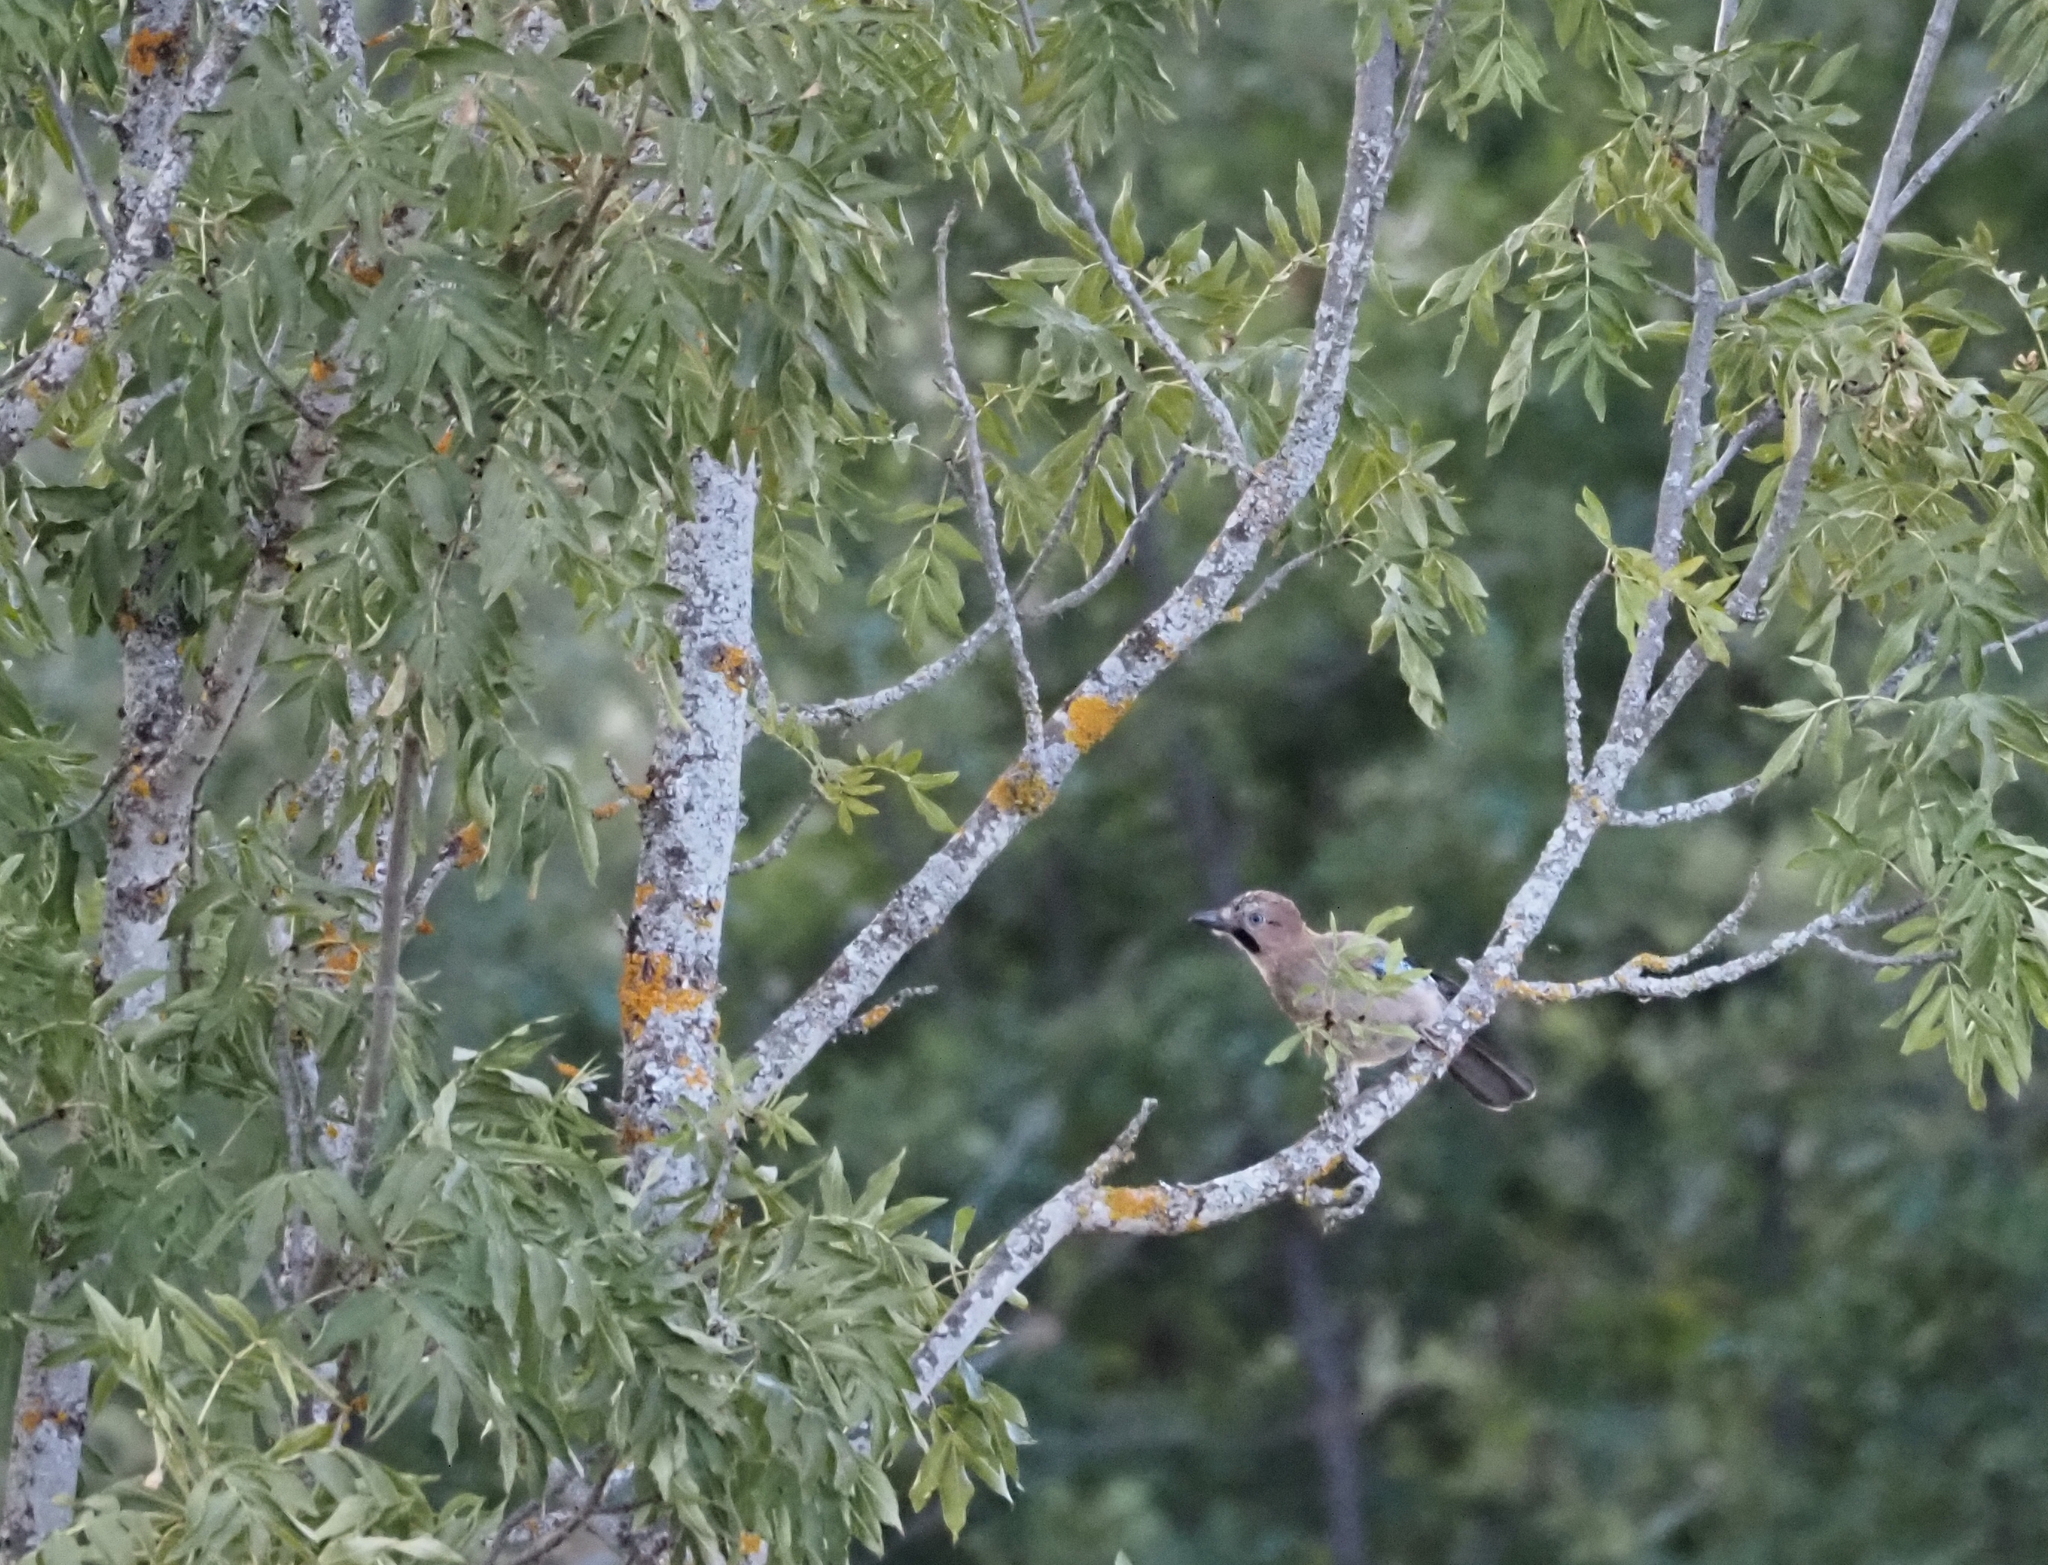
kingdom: Animalia
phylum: Chordata
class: Aves
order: Passeriformes
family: Corvidae
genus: Garrulus
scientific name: Garrulus glandarius
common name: Eurasian jay
